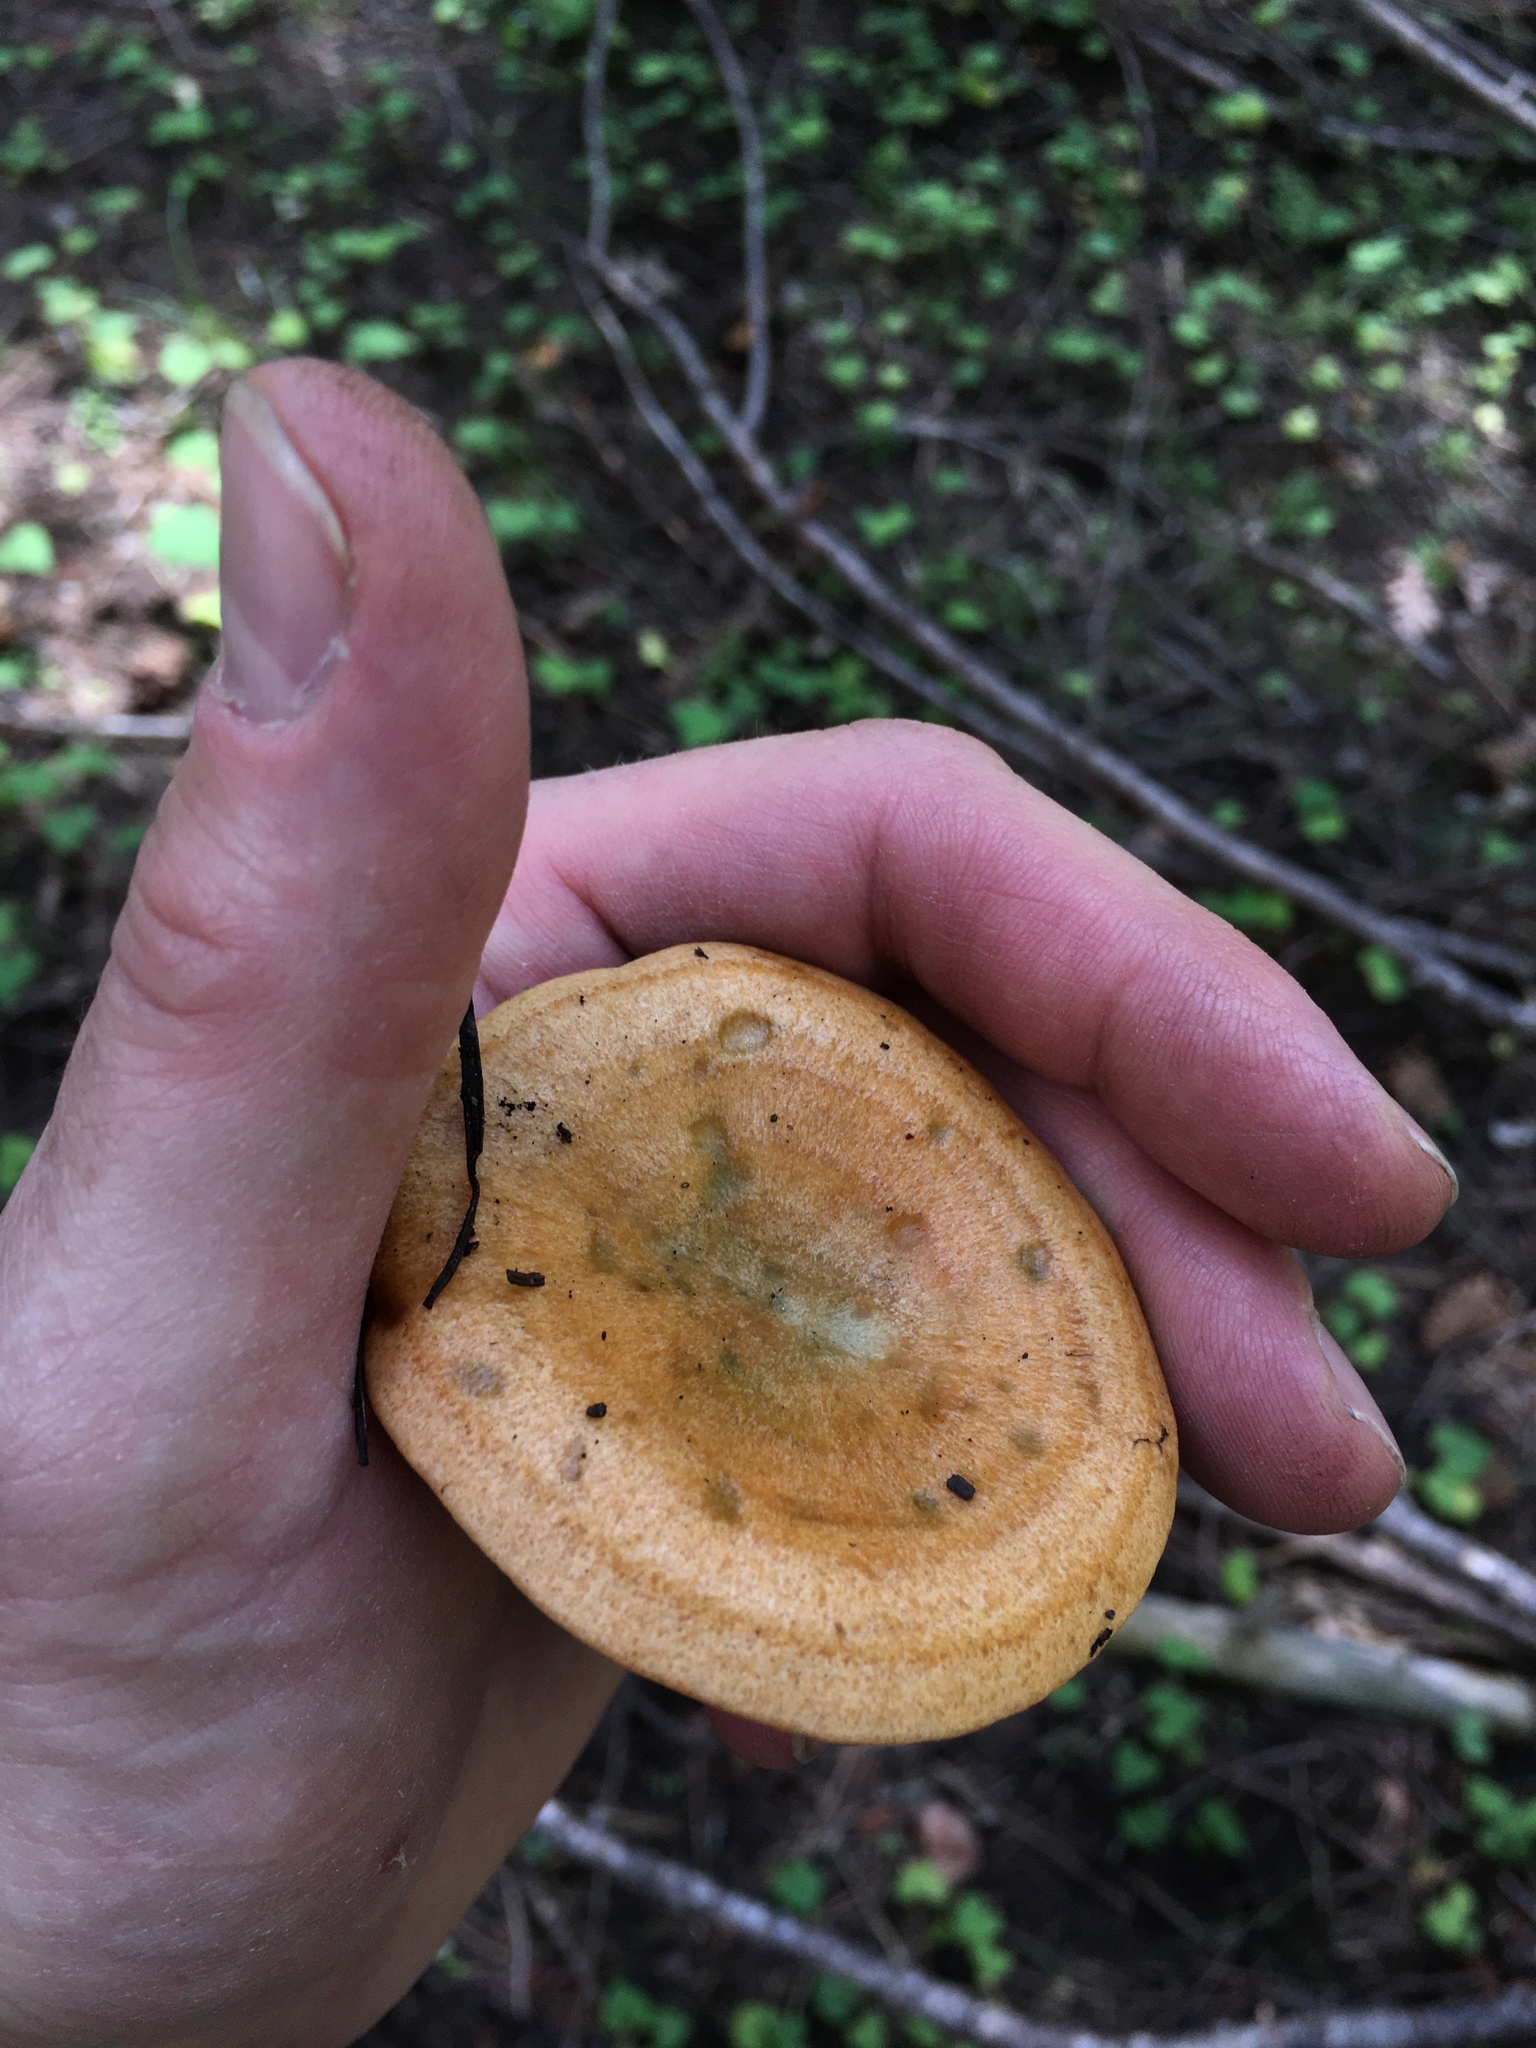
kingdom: Fungi
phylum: Basidiomycota
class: Agaricomycetes
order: Russulales
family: Russulaceae
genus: Lactarius
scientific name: Lactarius rubrilacteus
